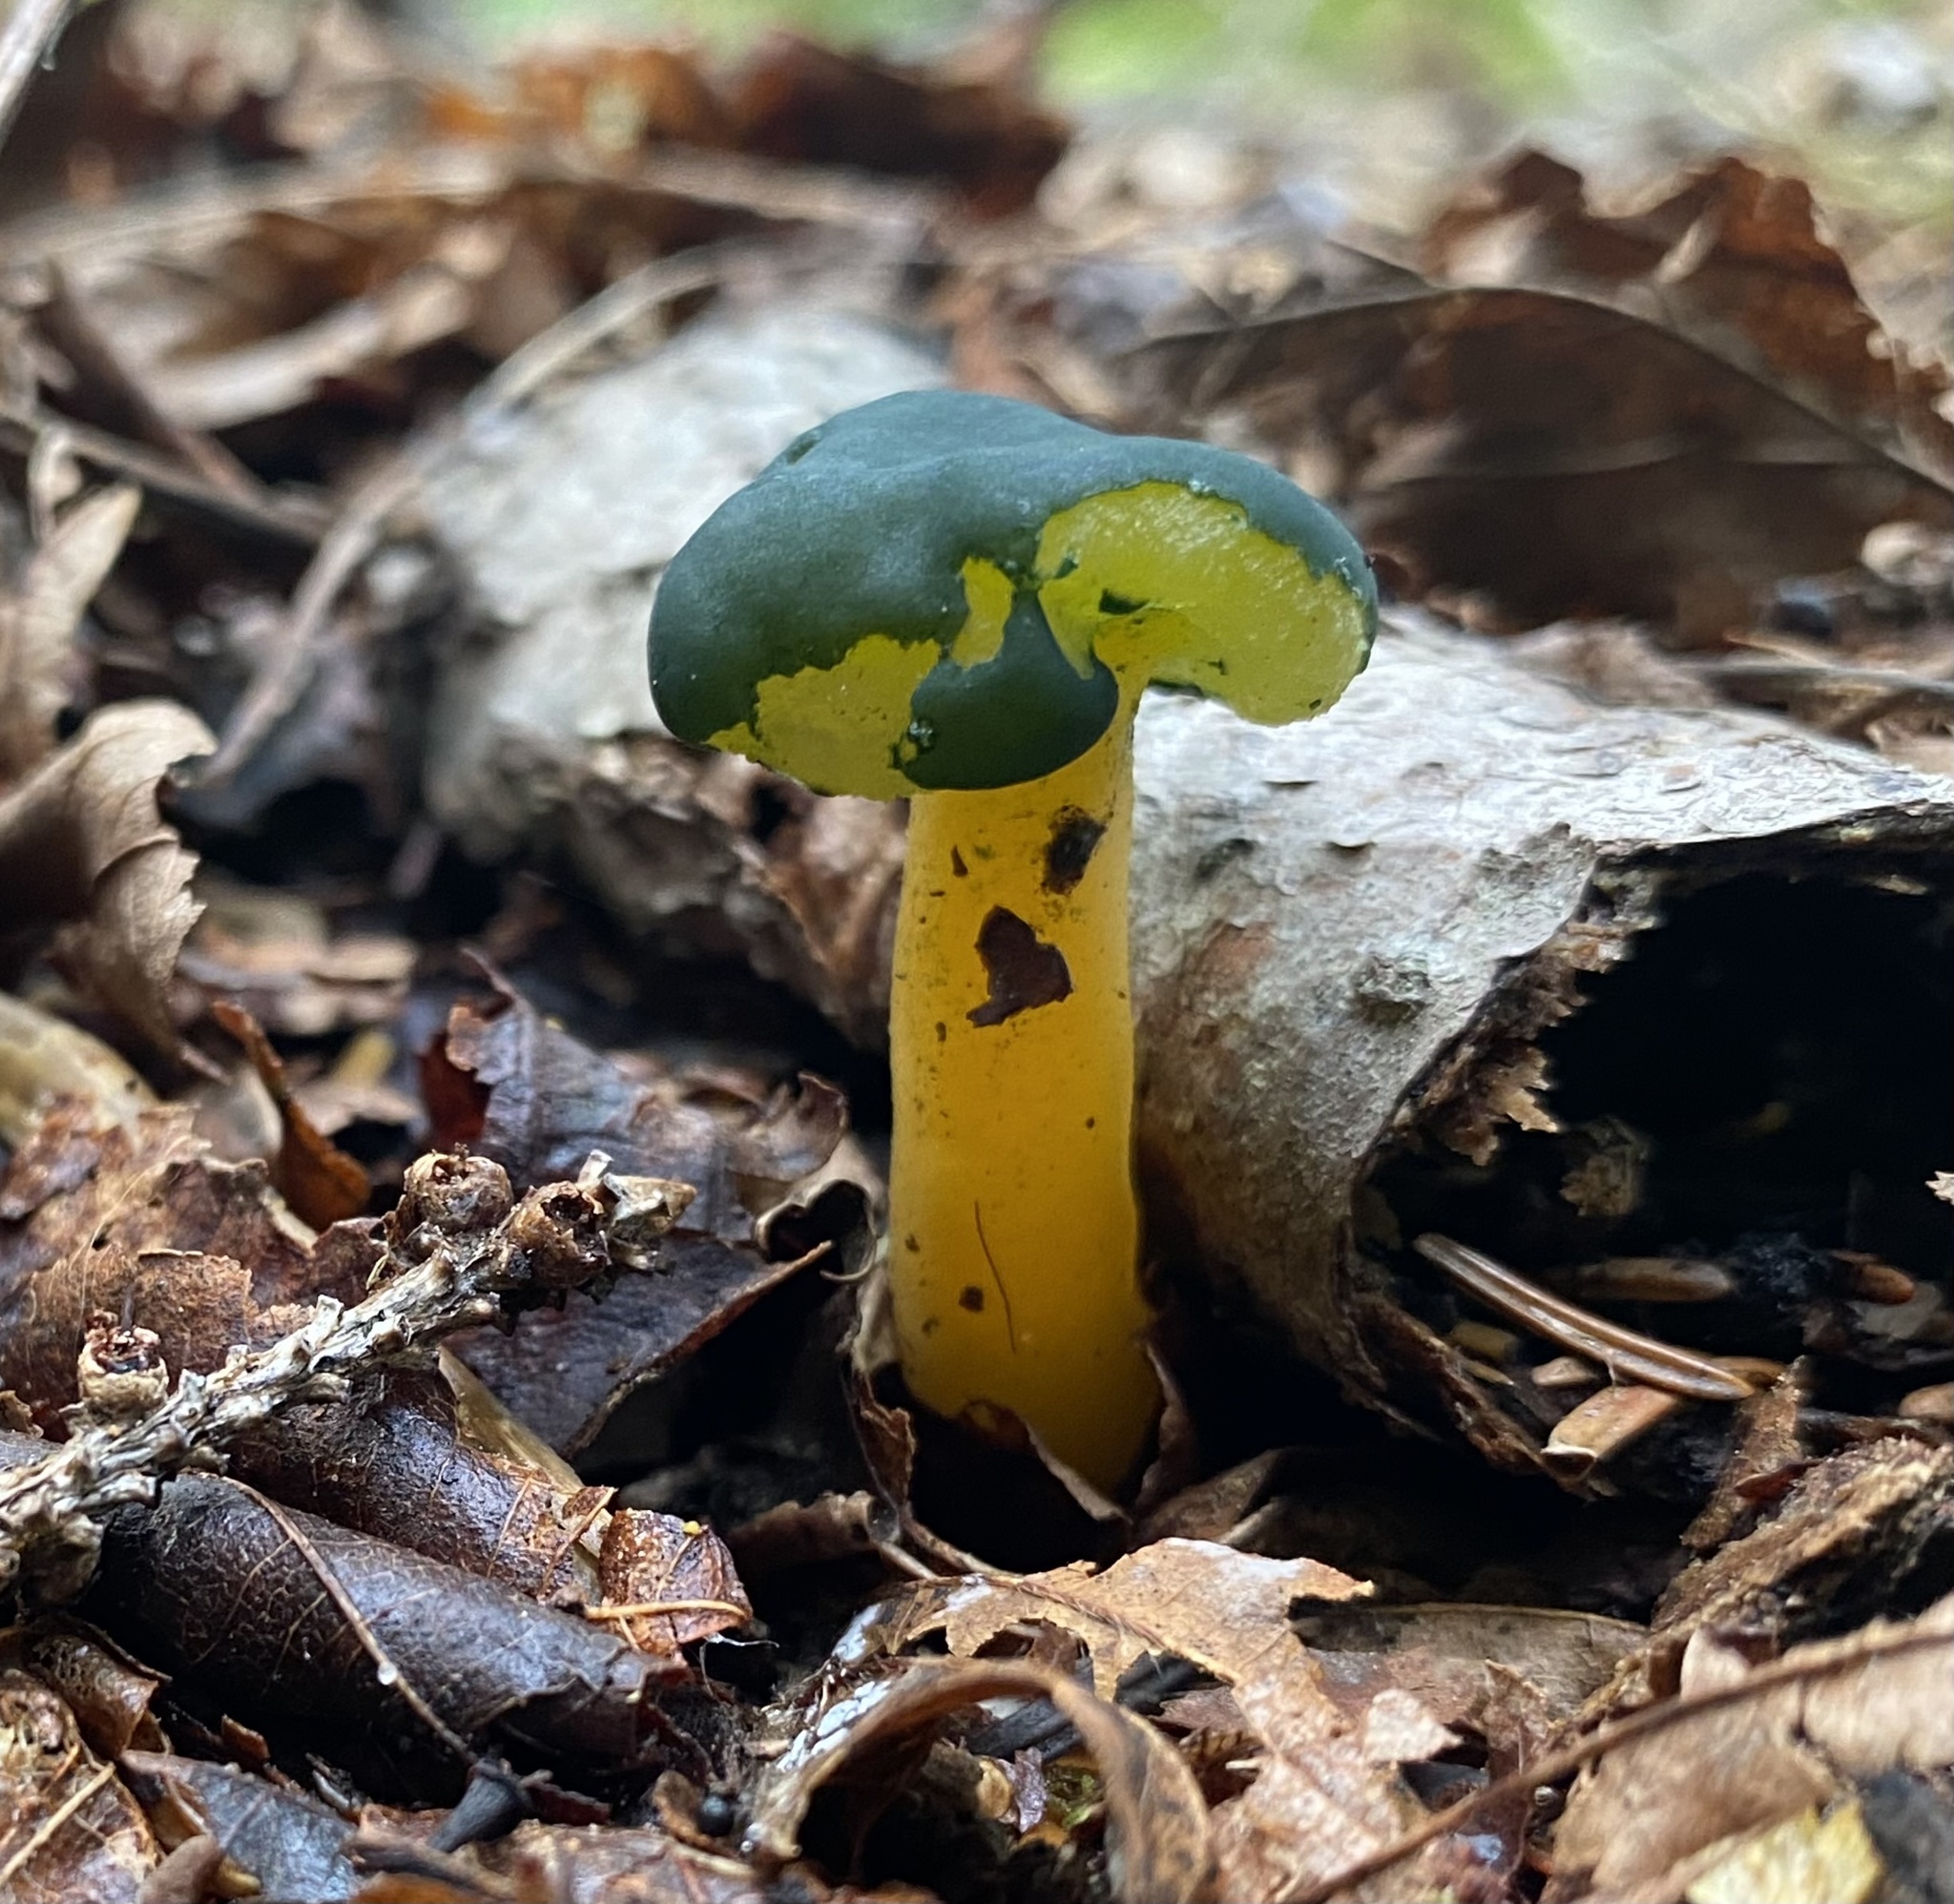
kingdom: Fungi
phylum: Ascomycota
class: Leotiomycetes
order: Leotiales
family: Leotiaceae
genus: Leotia
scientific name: Leotia lubrica
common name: Jellybaby
